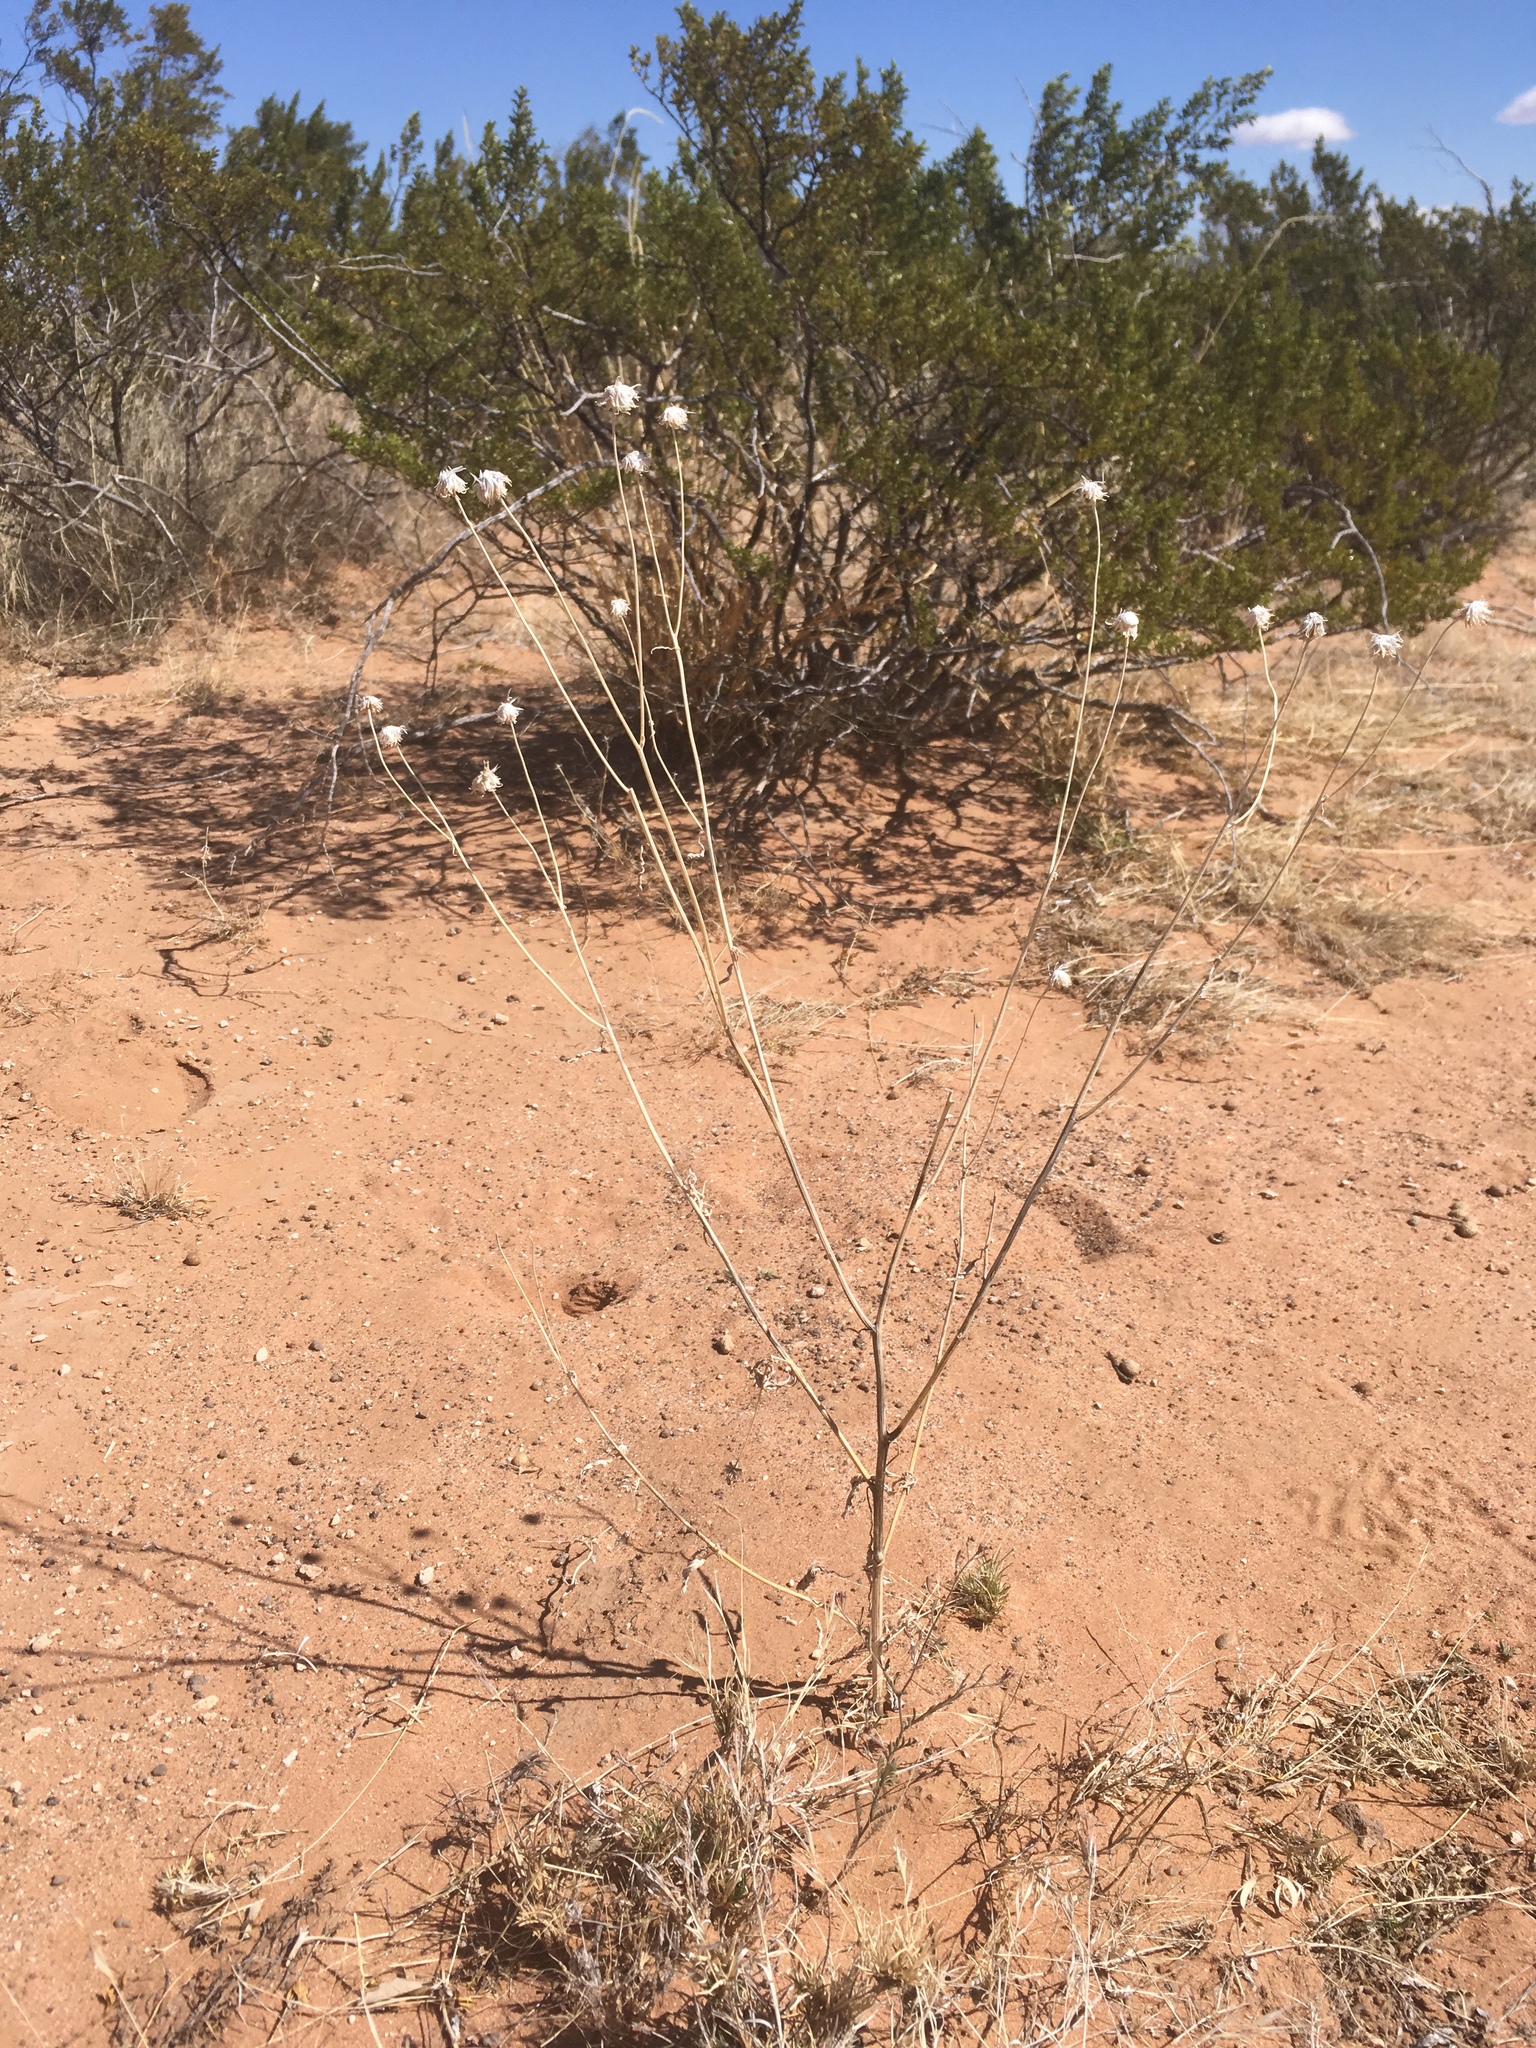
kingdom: Plantae
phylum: Tracheophyta
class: Magnoliopsida
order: Asterales
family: Asteraceae
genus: Verbesina
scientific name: Verbesina encelioides
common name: Golden crownbeard
